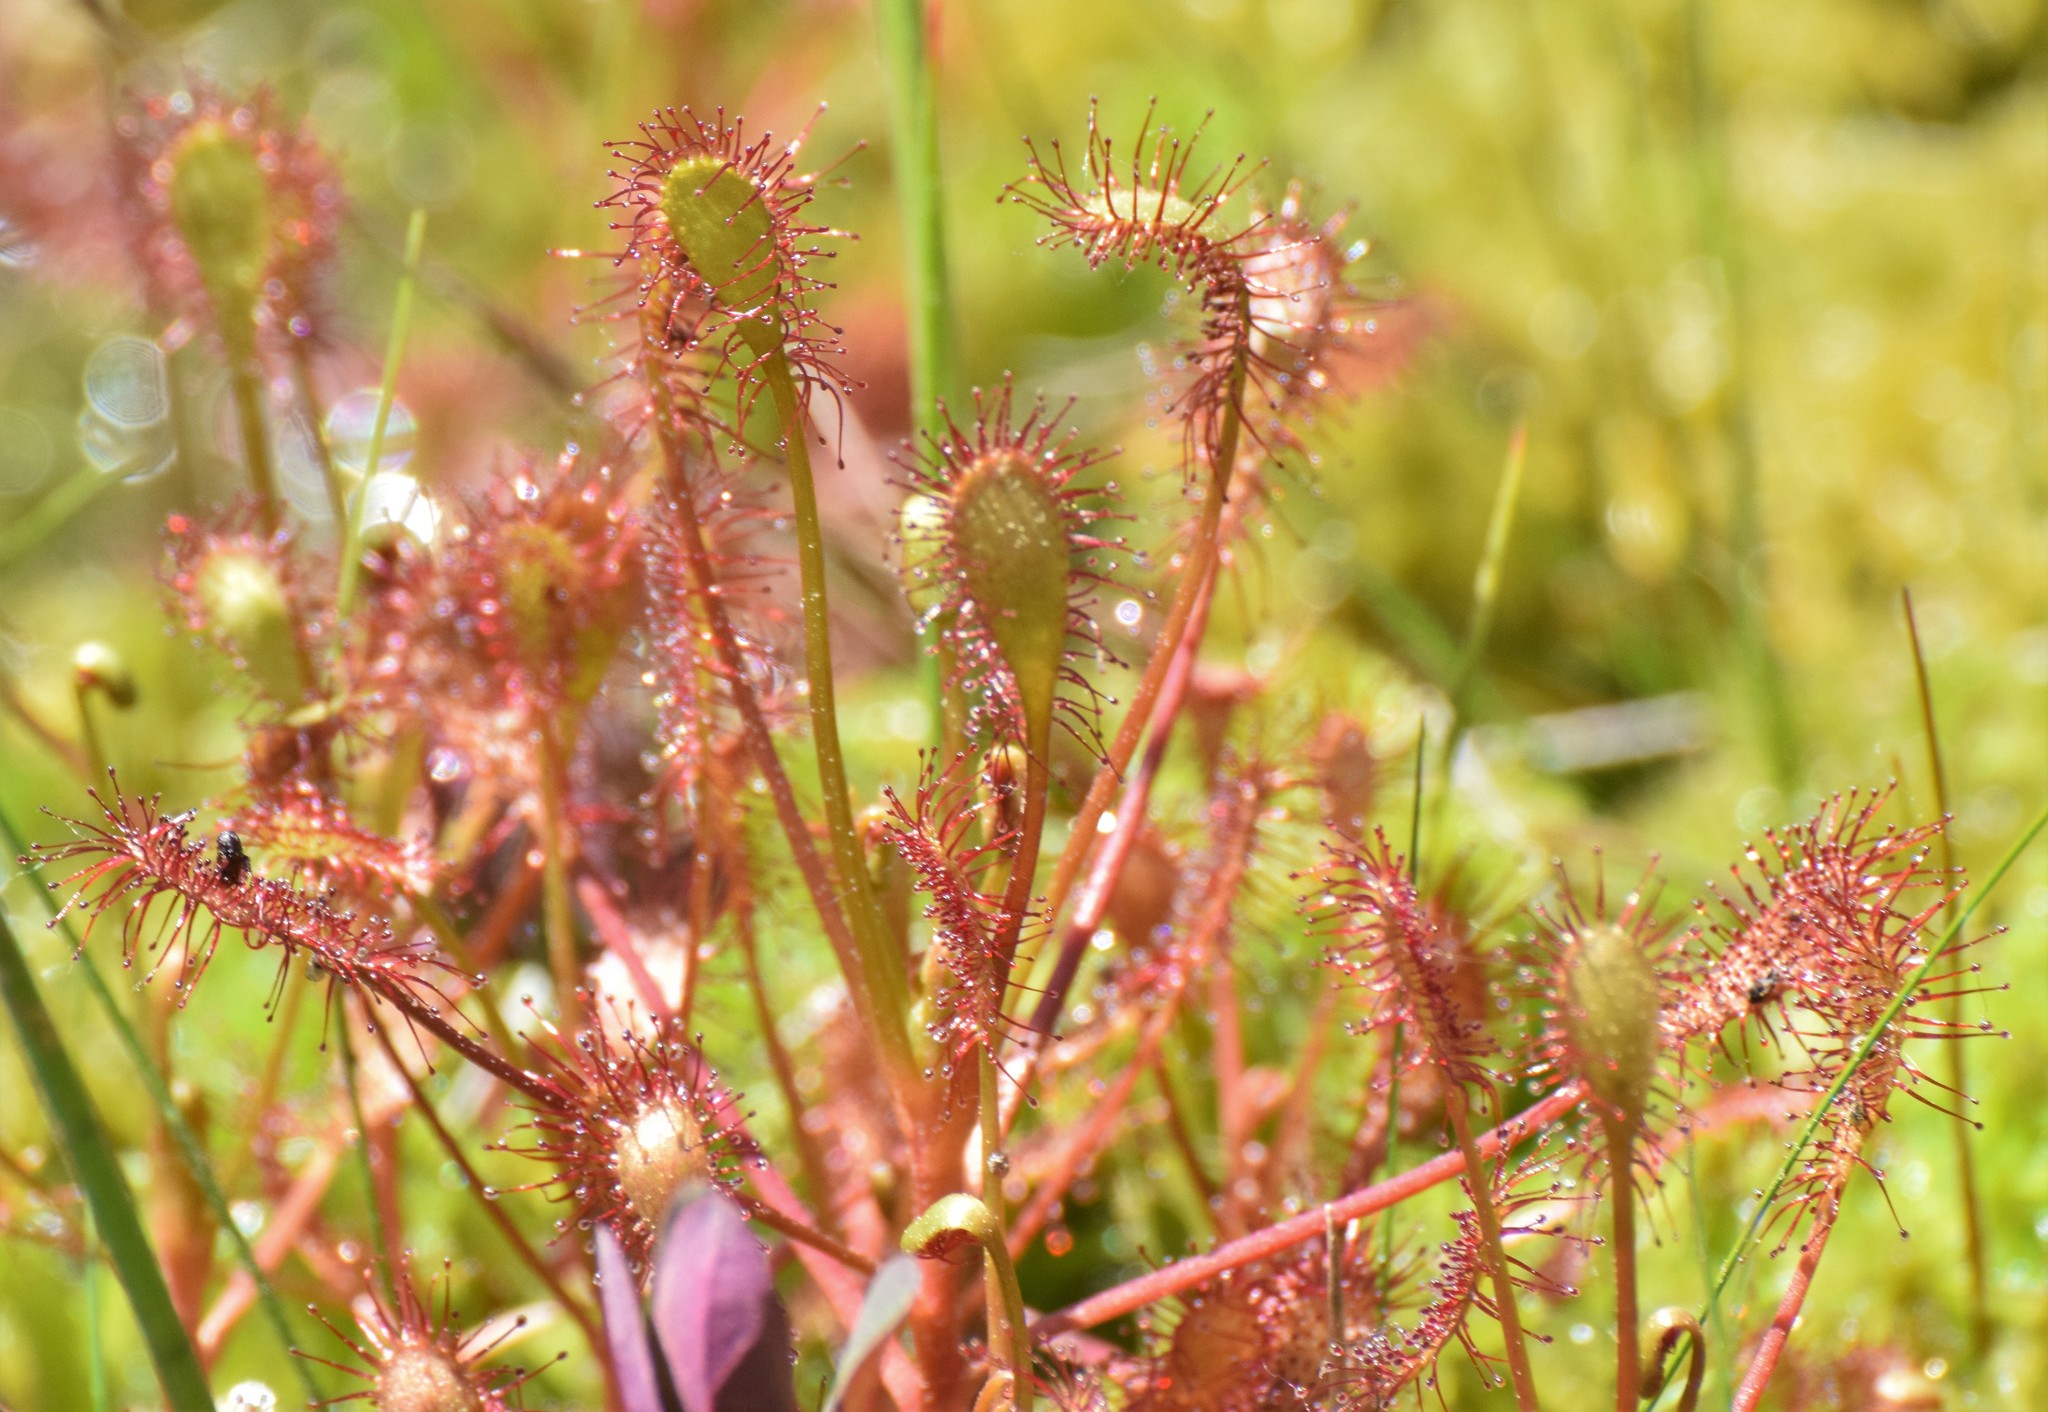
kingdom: Plantae
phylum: Tracheophyta
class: Magnoliopsida
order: Caryophyllales
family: Droseraceae
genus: Drosera
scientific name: Drosera intermedia
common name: Oblong-leaved sundew
